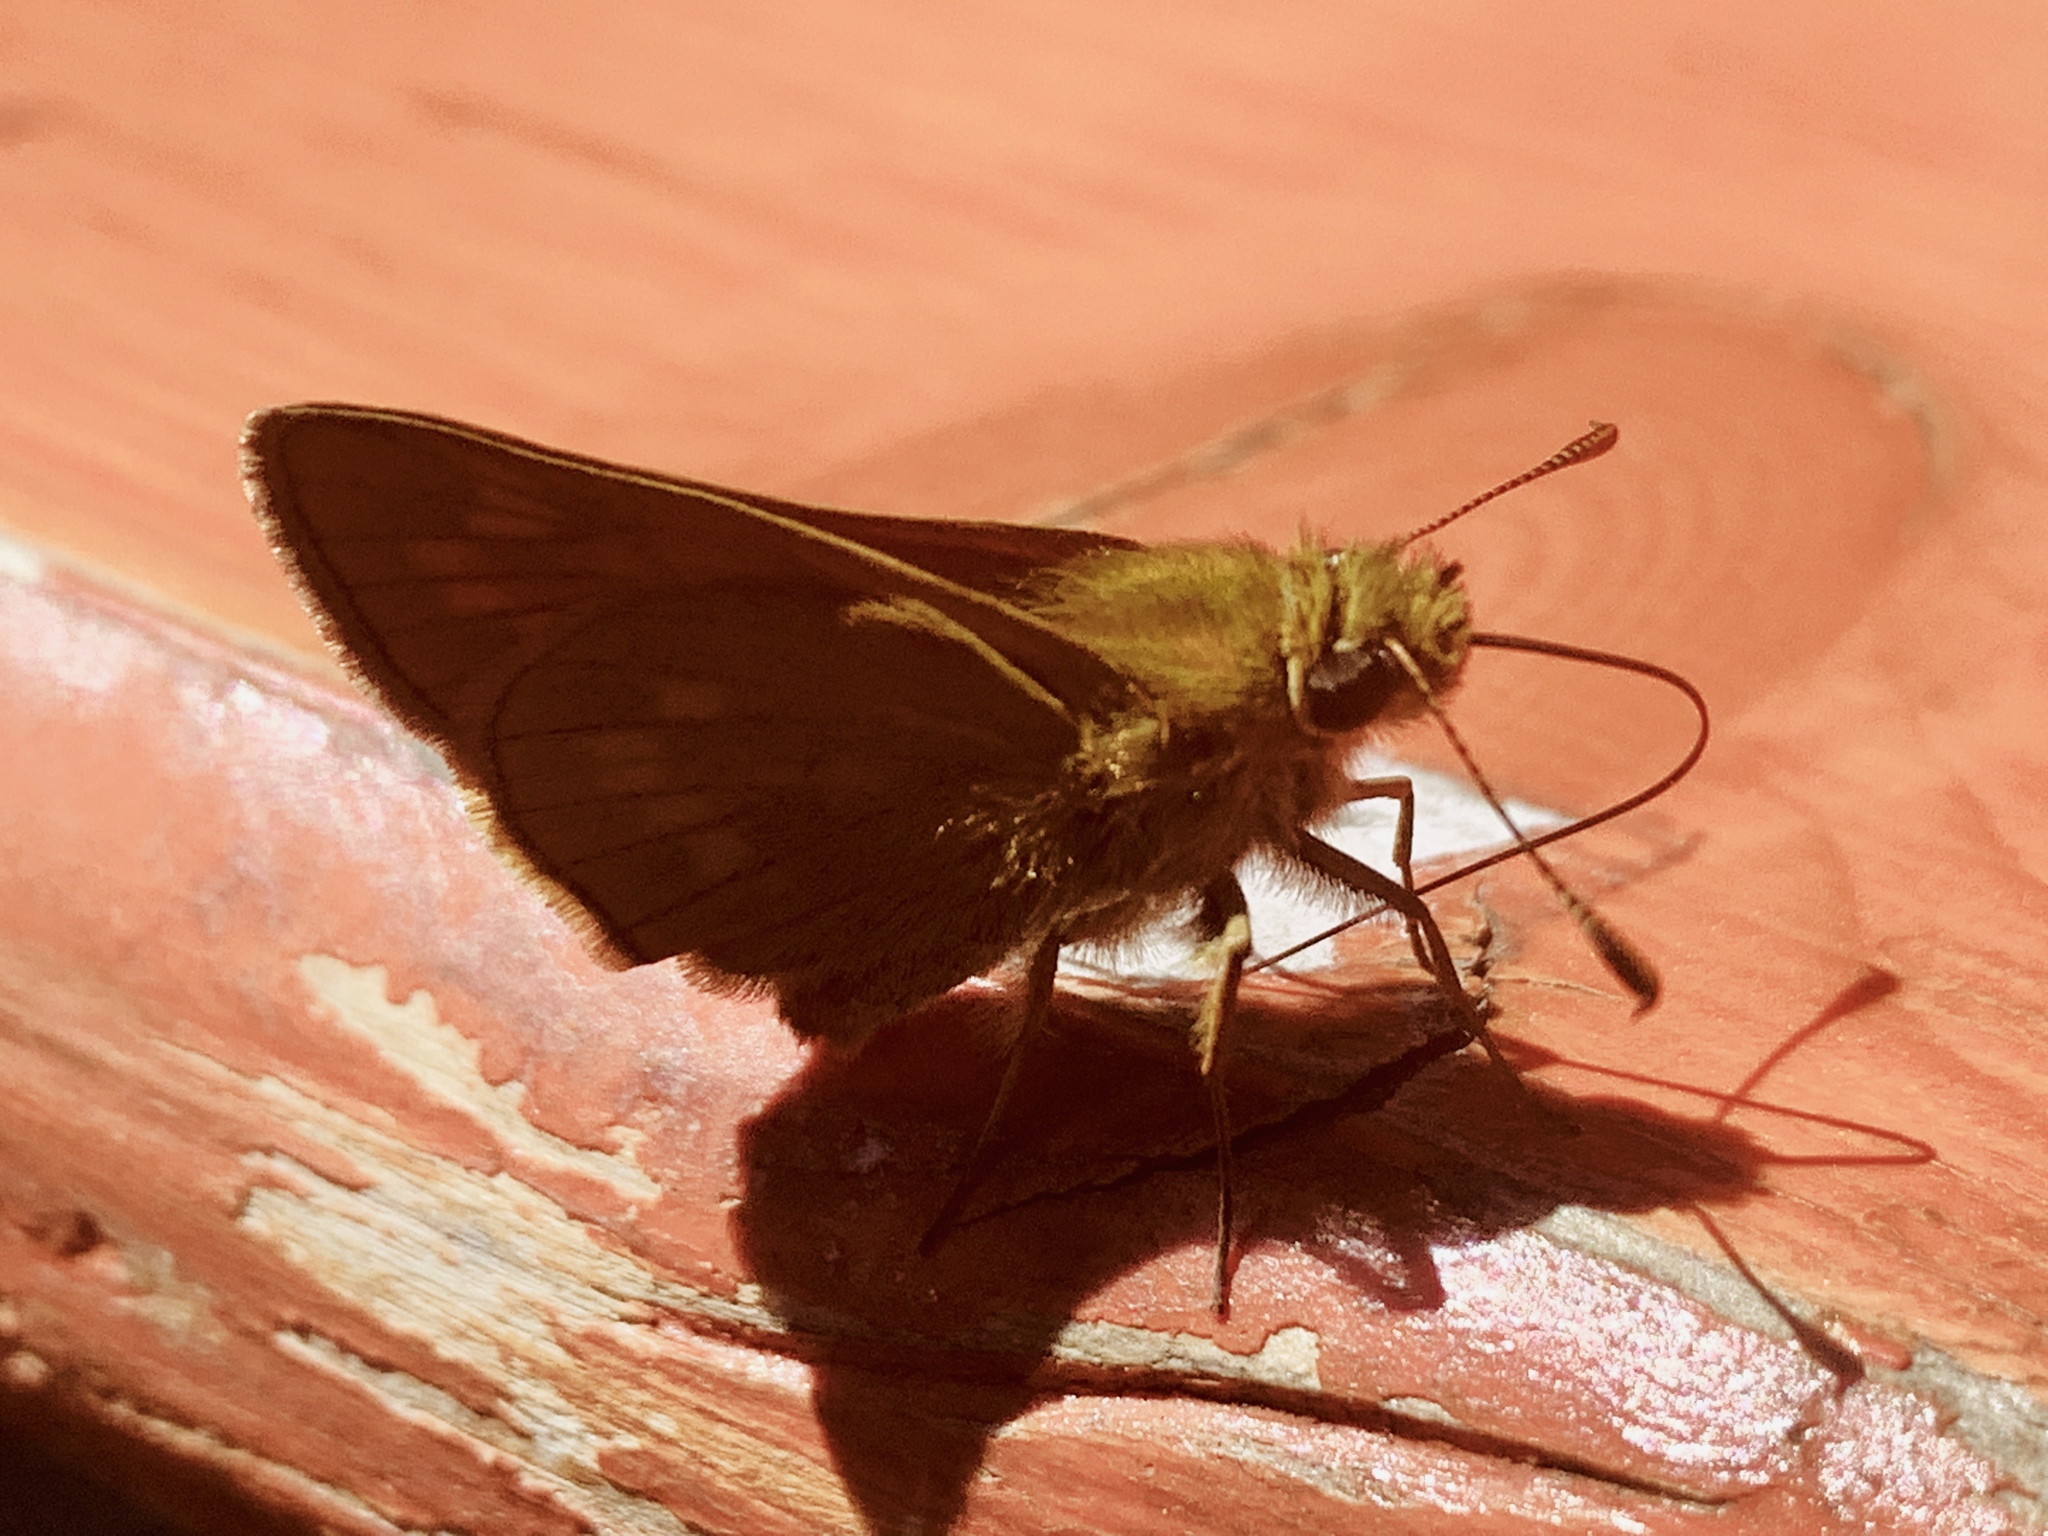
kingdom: Animalia
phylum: Arthropoda
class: Insecta
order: Lepidoptera
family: Hesperiidae
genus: Ochlodes
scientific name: Ochlodes venata
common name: Large skipper
